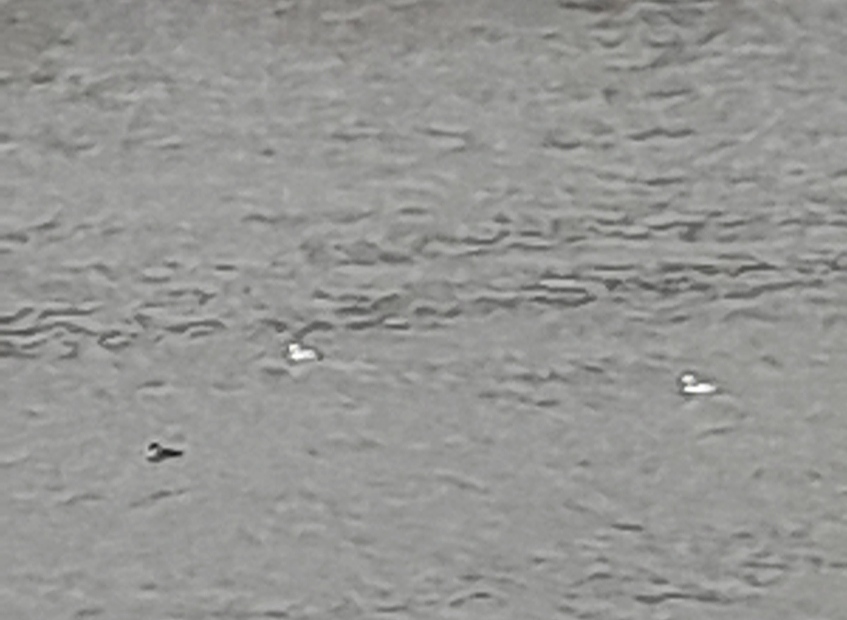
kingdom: Animalia
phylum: Chordata
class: Aves
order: Anseriformes
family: Anatidae
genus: Mergellus
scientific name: Mergellus albellus
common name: Smew
